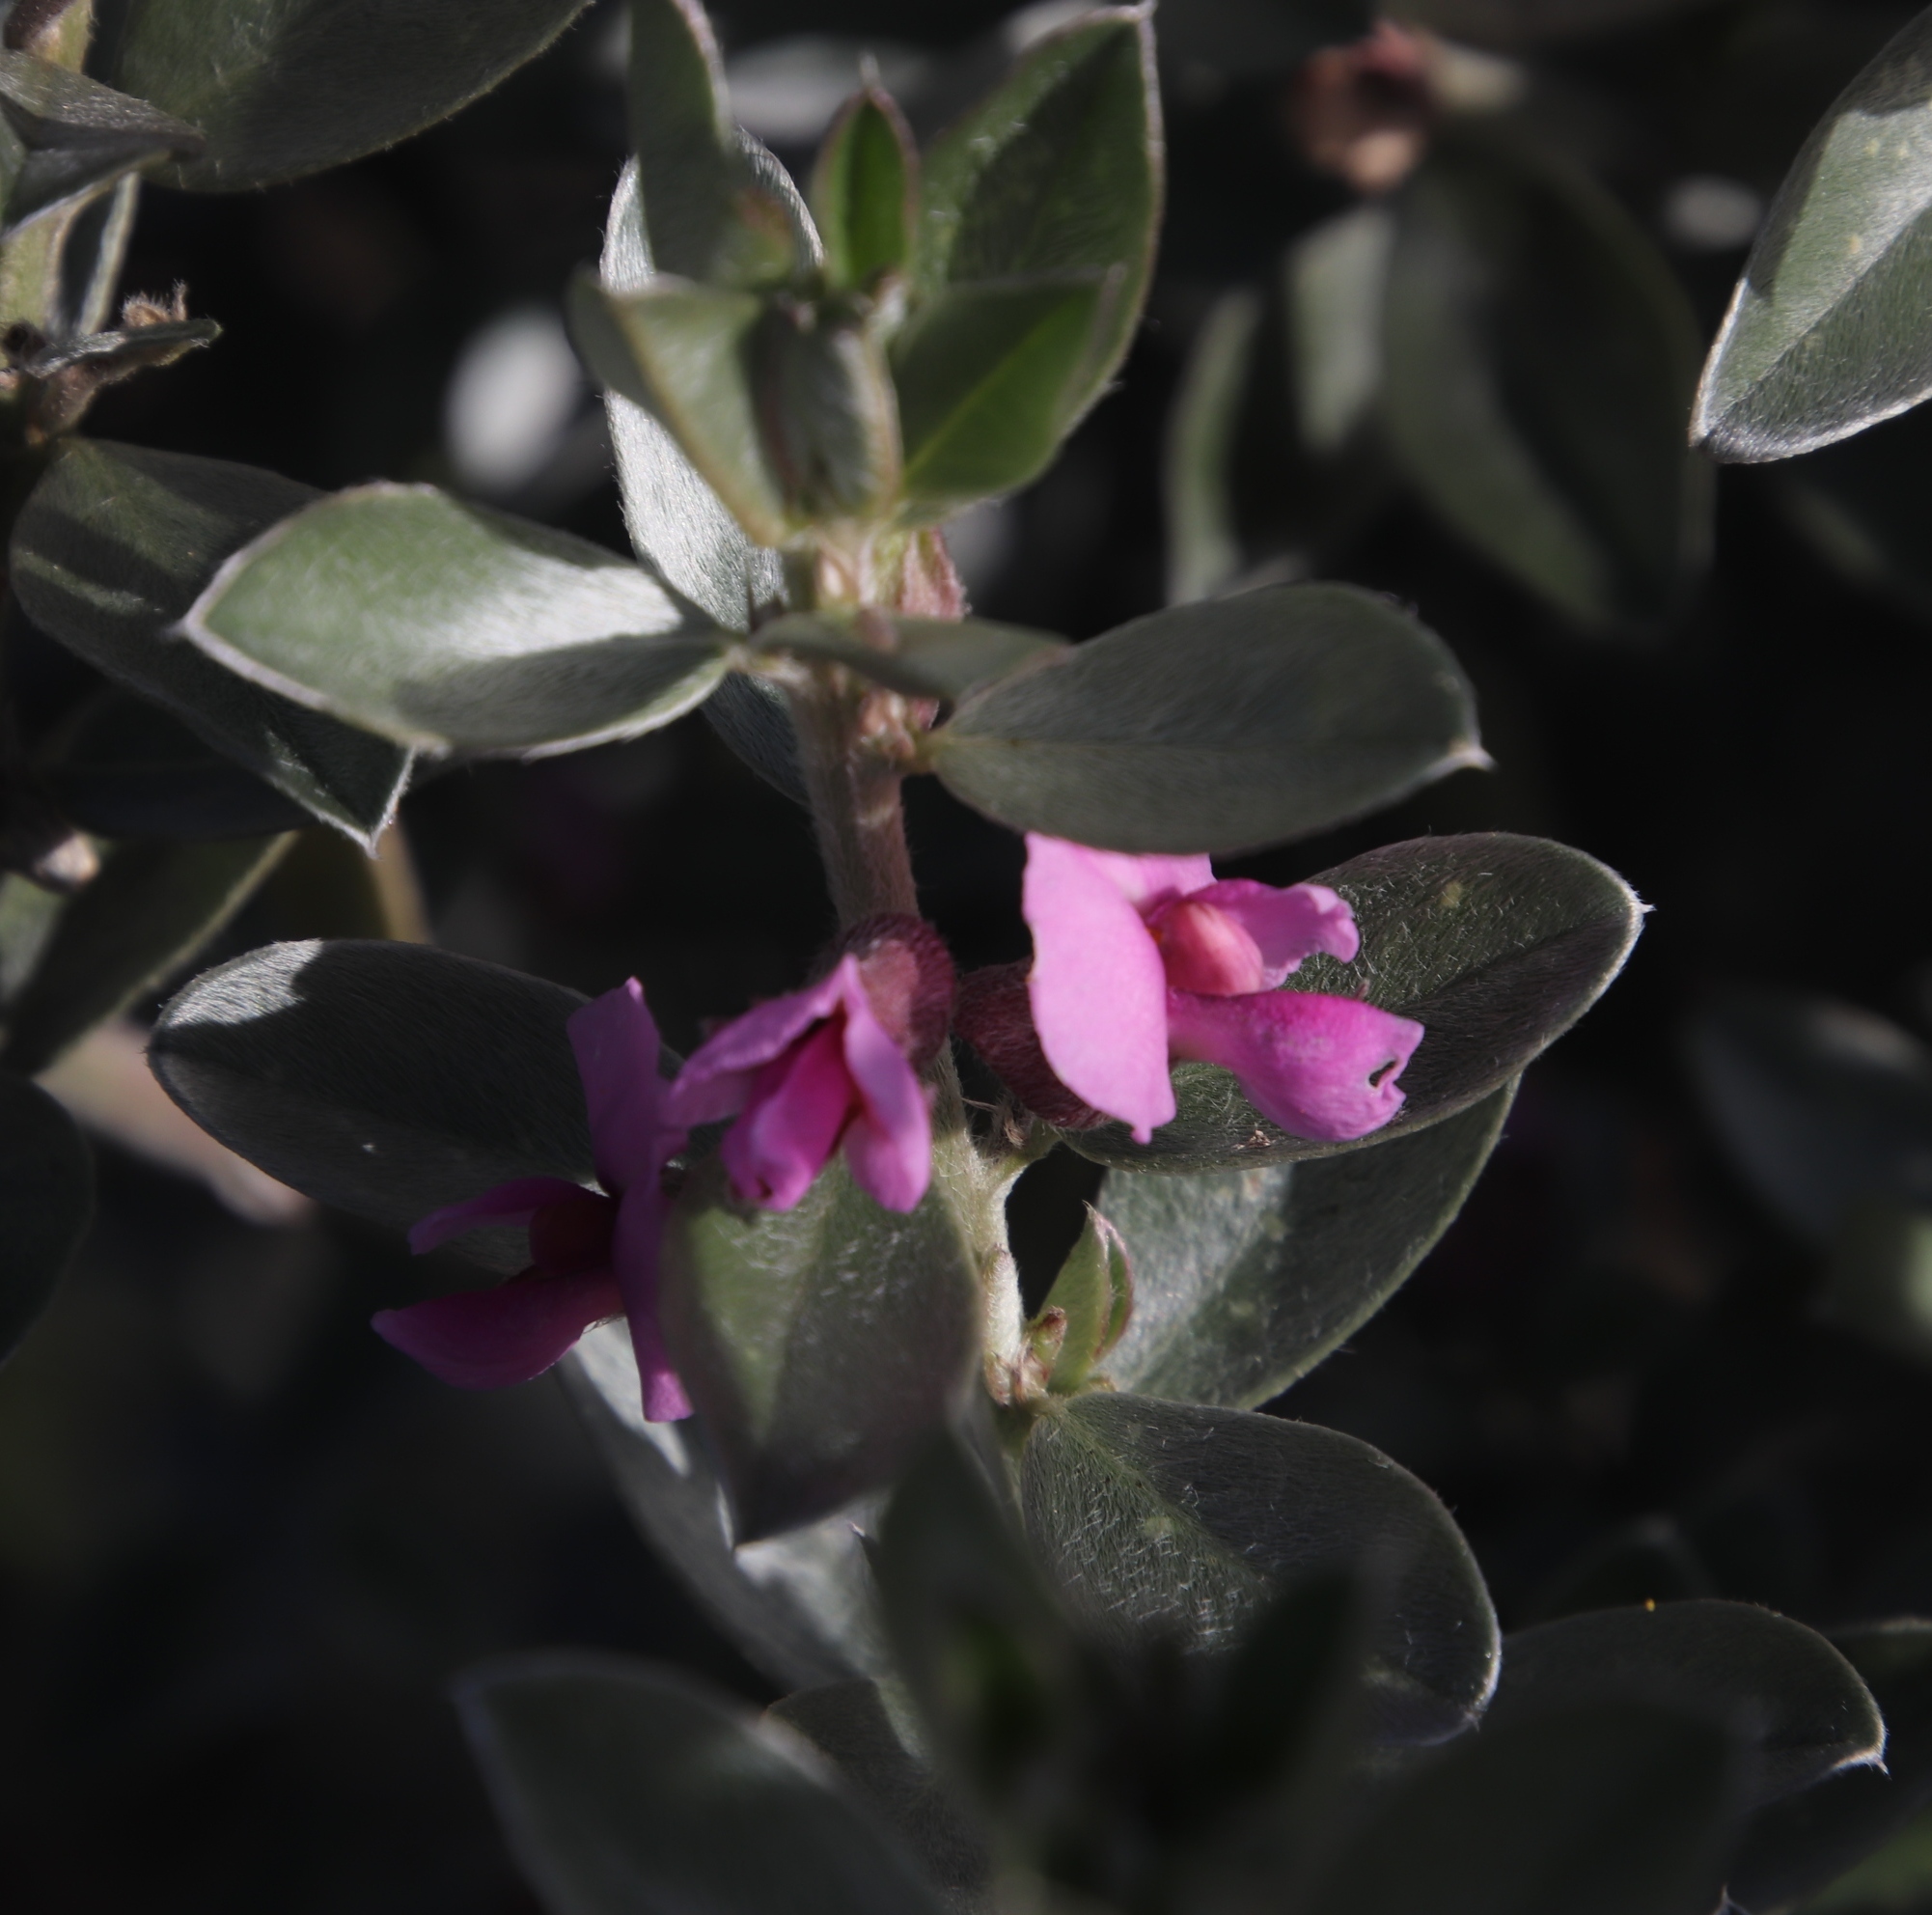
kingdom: Plantae
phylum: Tracheophyta
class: Magnoliopsida
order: Fabales
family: Fabaceae
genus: Podalyria
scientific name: Podalyria sericea
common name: Silver podalyria
